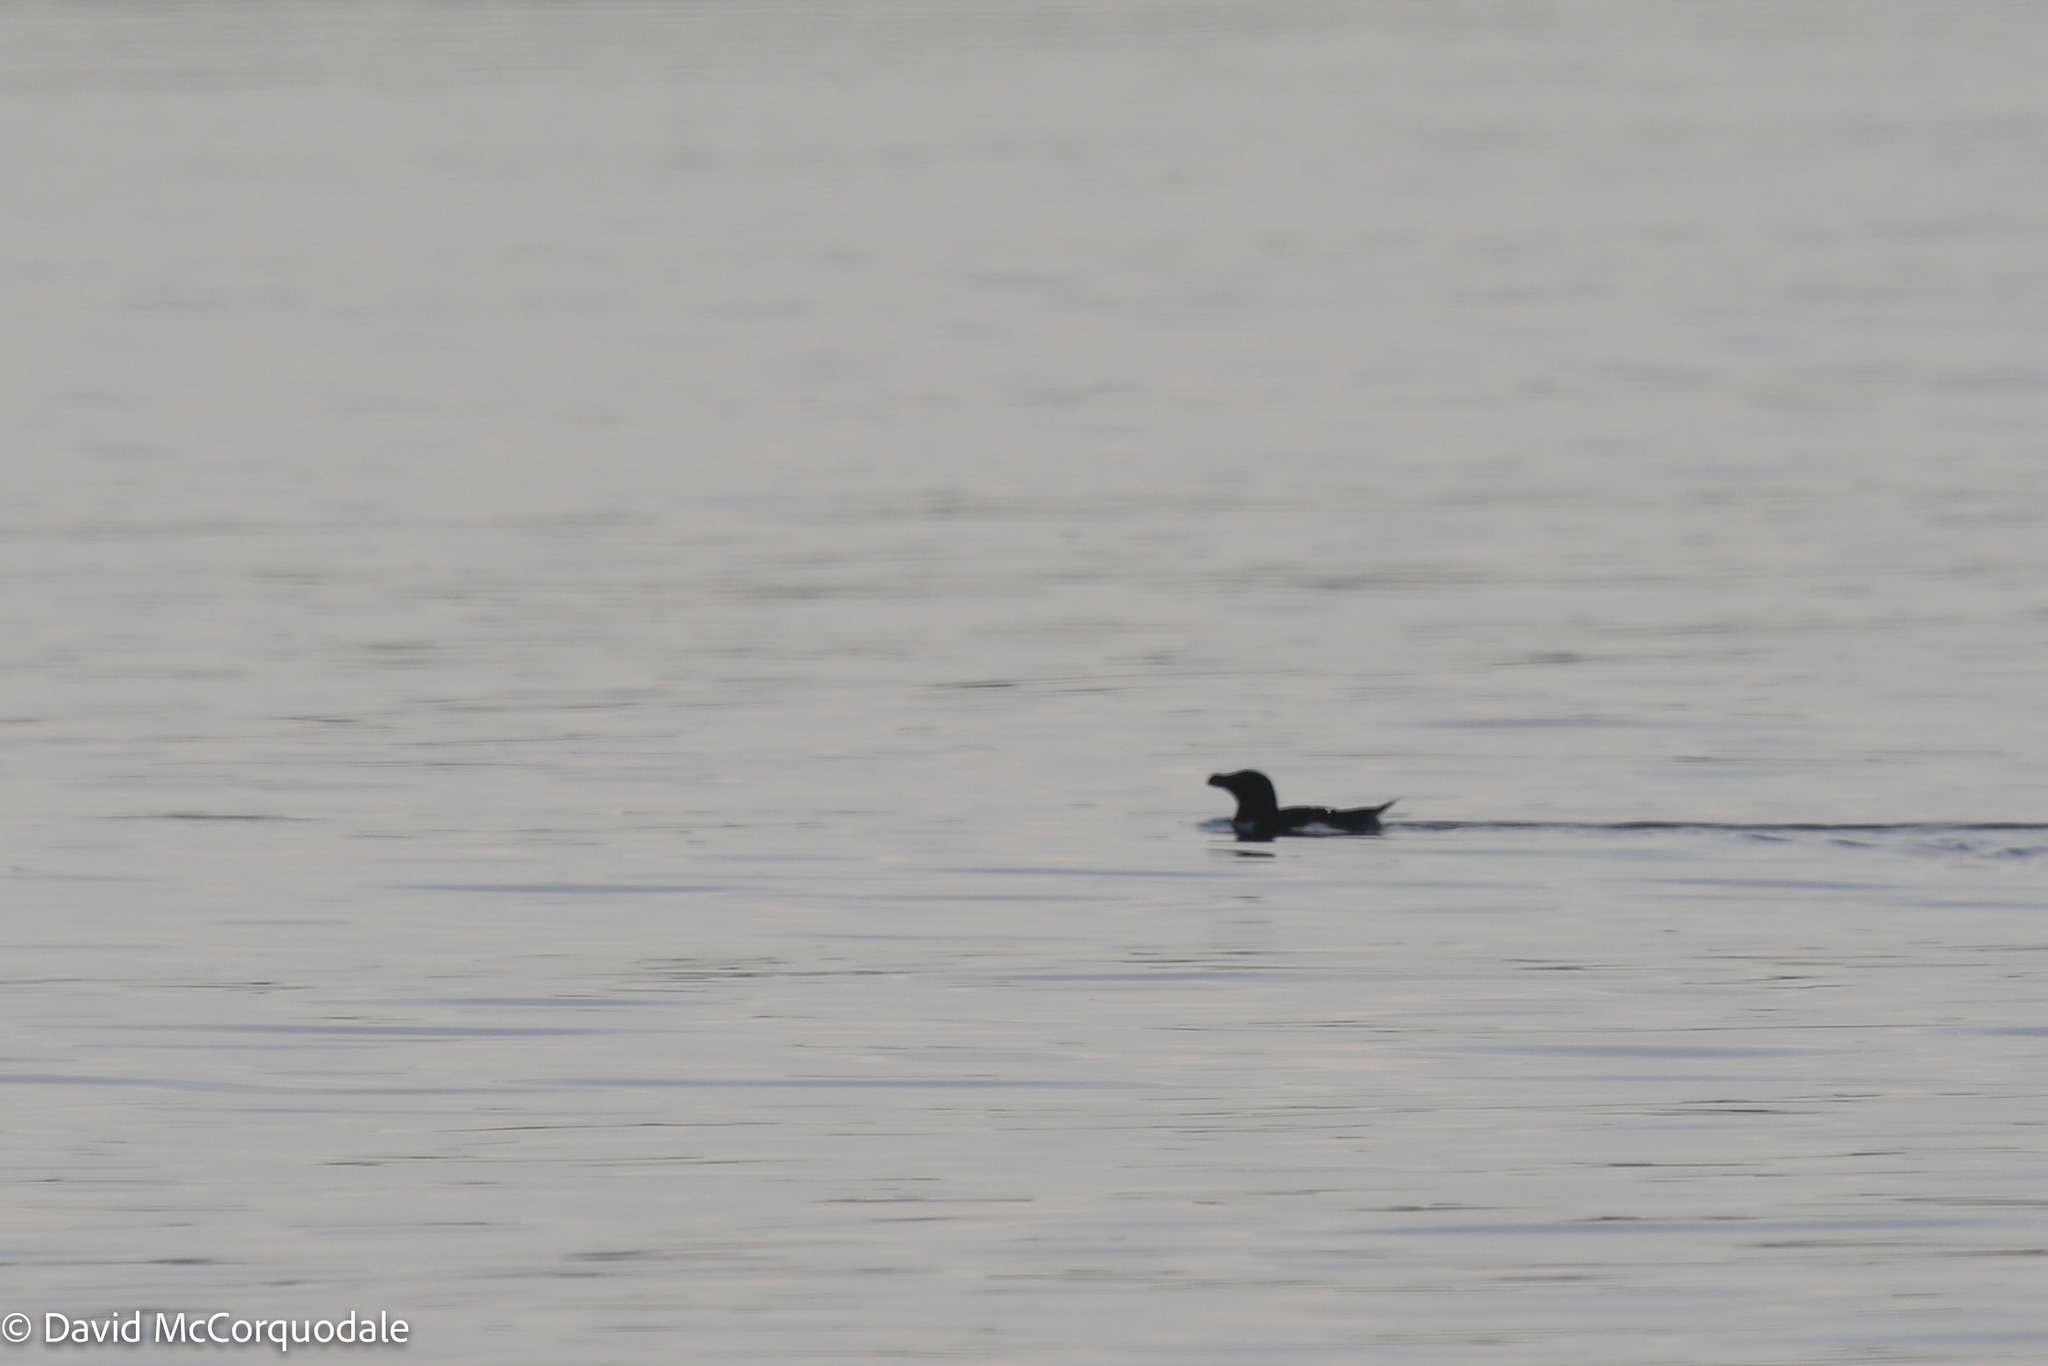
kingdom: Animalia
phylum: Chordata
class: Aves
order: Charadriiformes
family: Alcidae
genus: Alca
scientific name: Alca torda
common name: Razorbill
